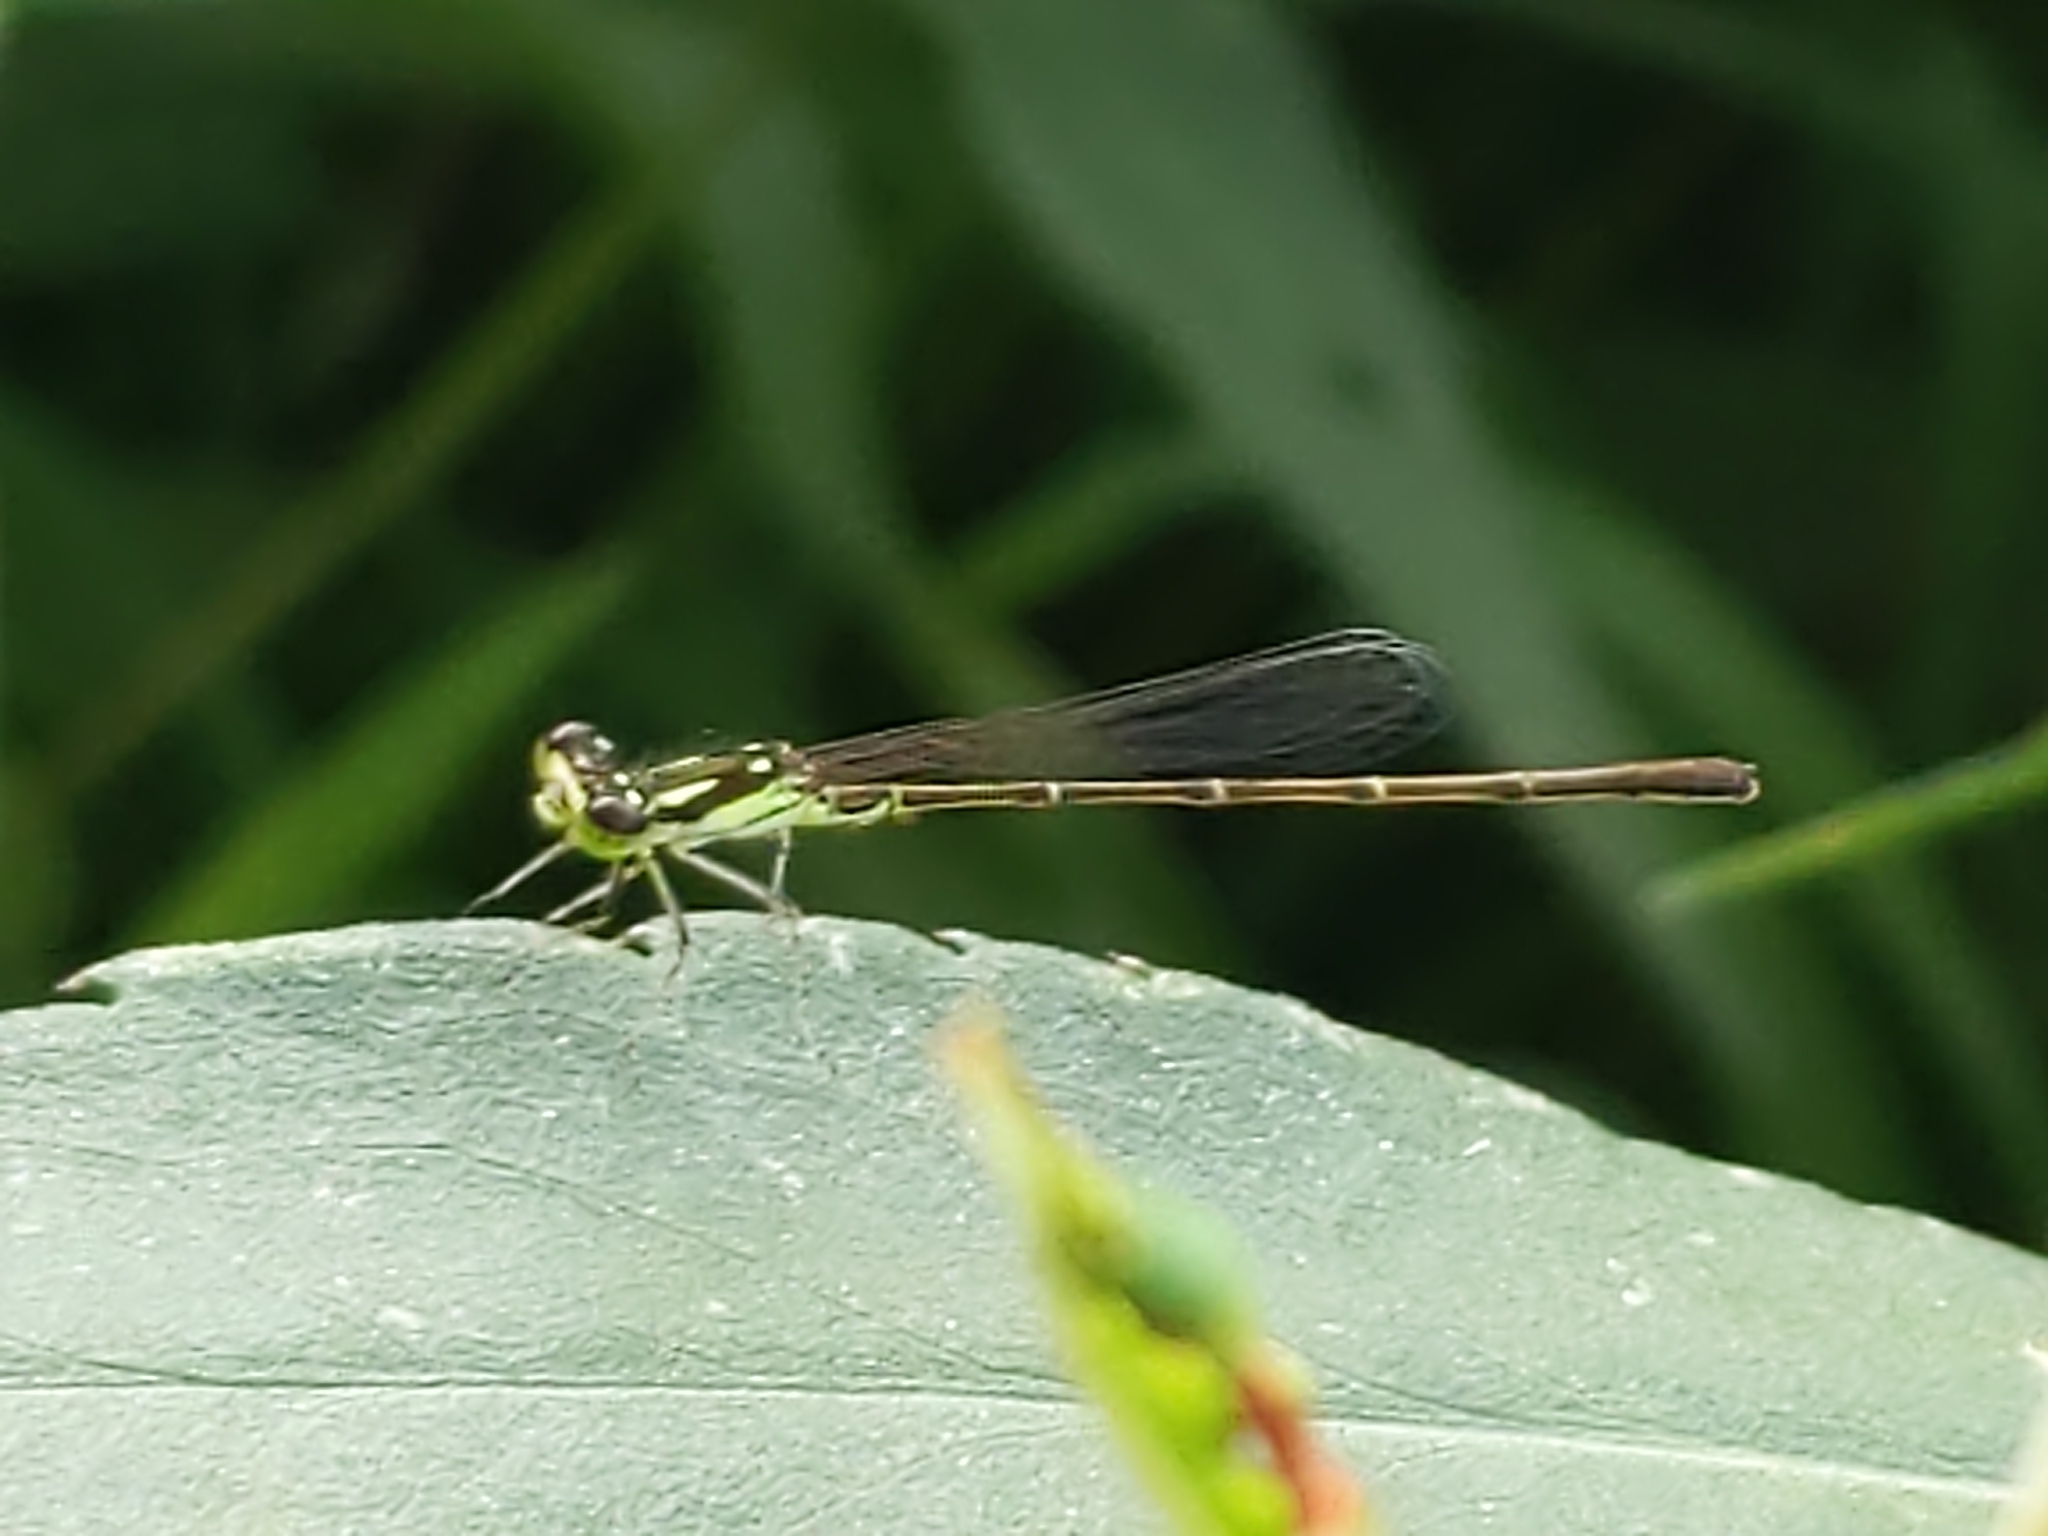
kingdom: Animalia
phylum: Arthropoda
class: Insecta
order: Odonata
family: Coenagrionidae
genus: Ischnura
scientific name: Ischnura posita
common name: Fragile forktail
